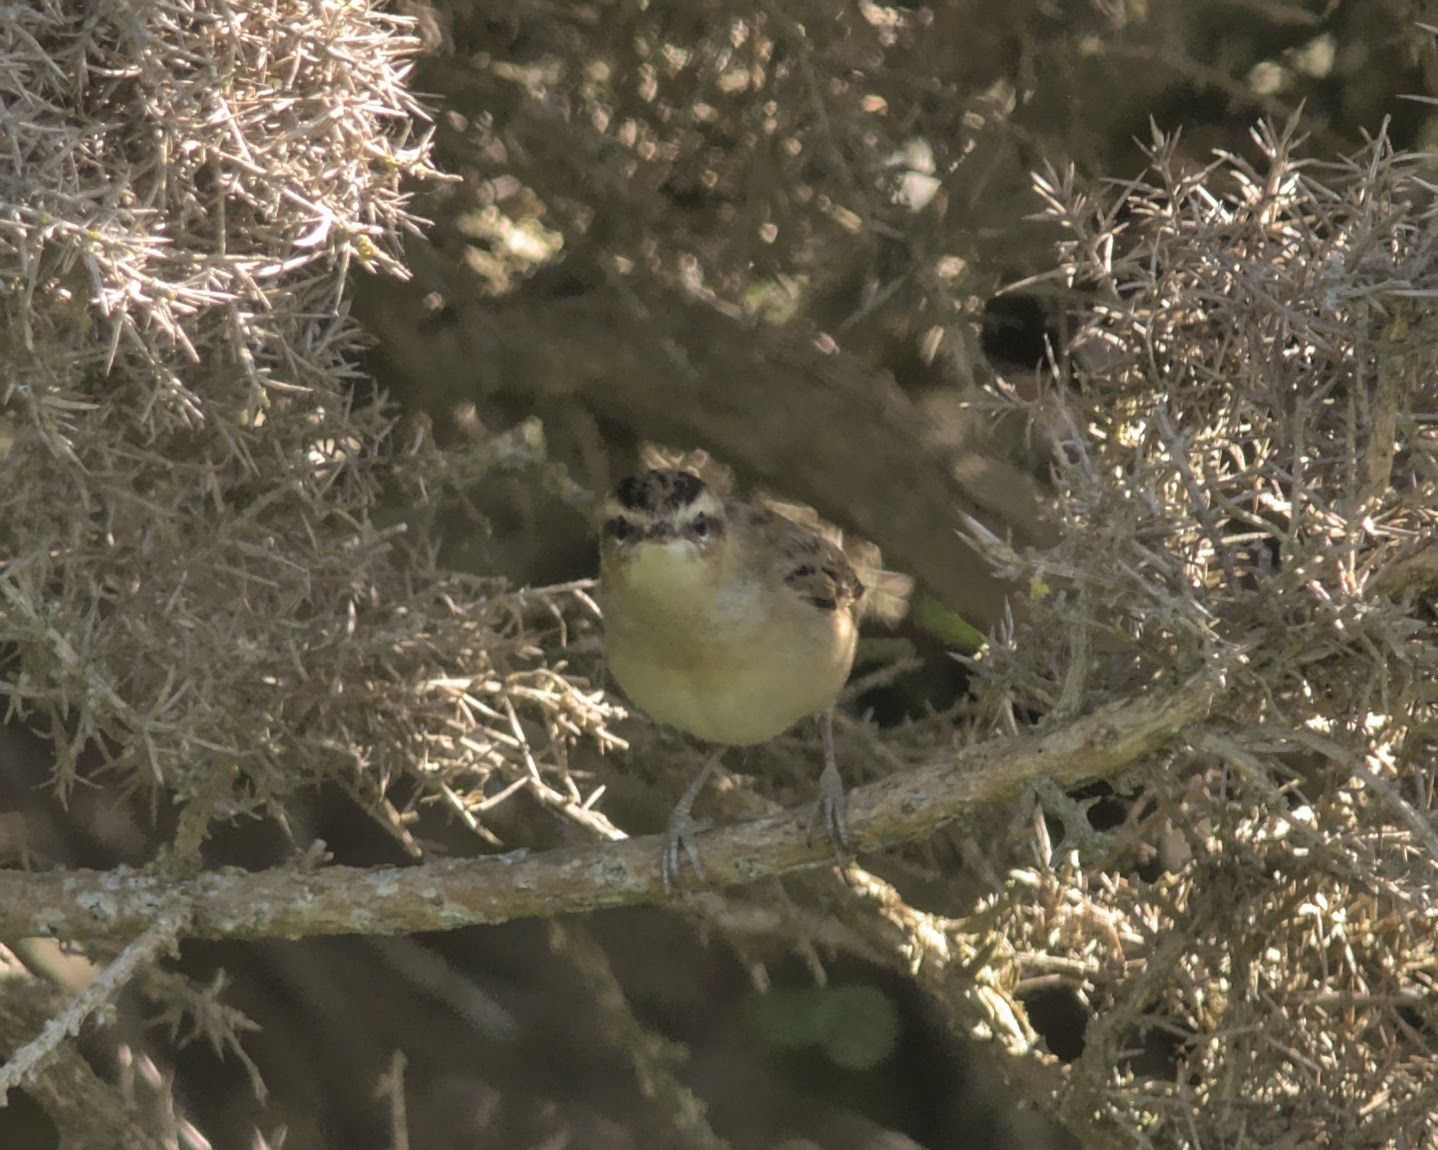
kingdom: Animalia
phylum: Chordata
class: Aves
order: Passeriformes
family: Acrocephalidae
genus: Acrocephalus
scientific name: Acrocephalus schoenobaenus
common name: Sedge warbler
